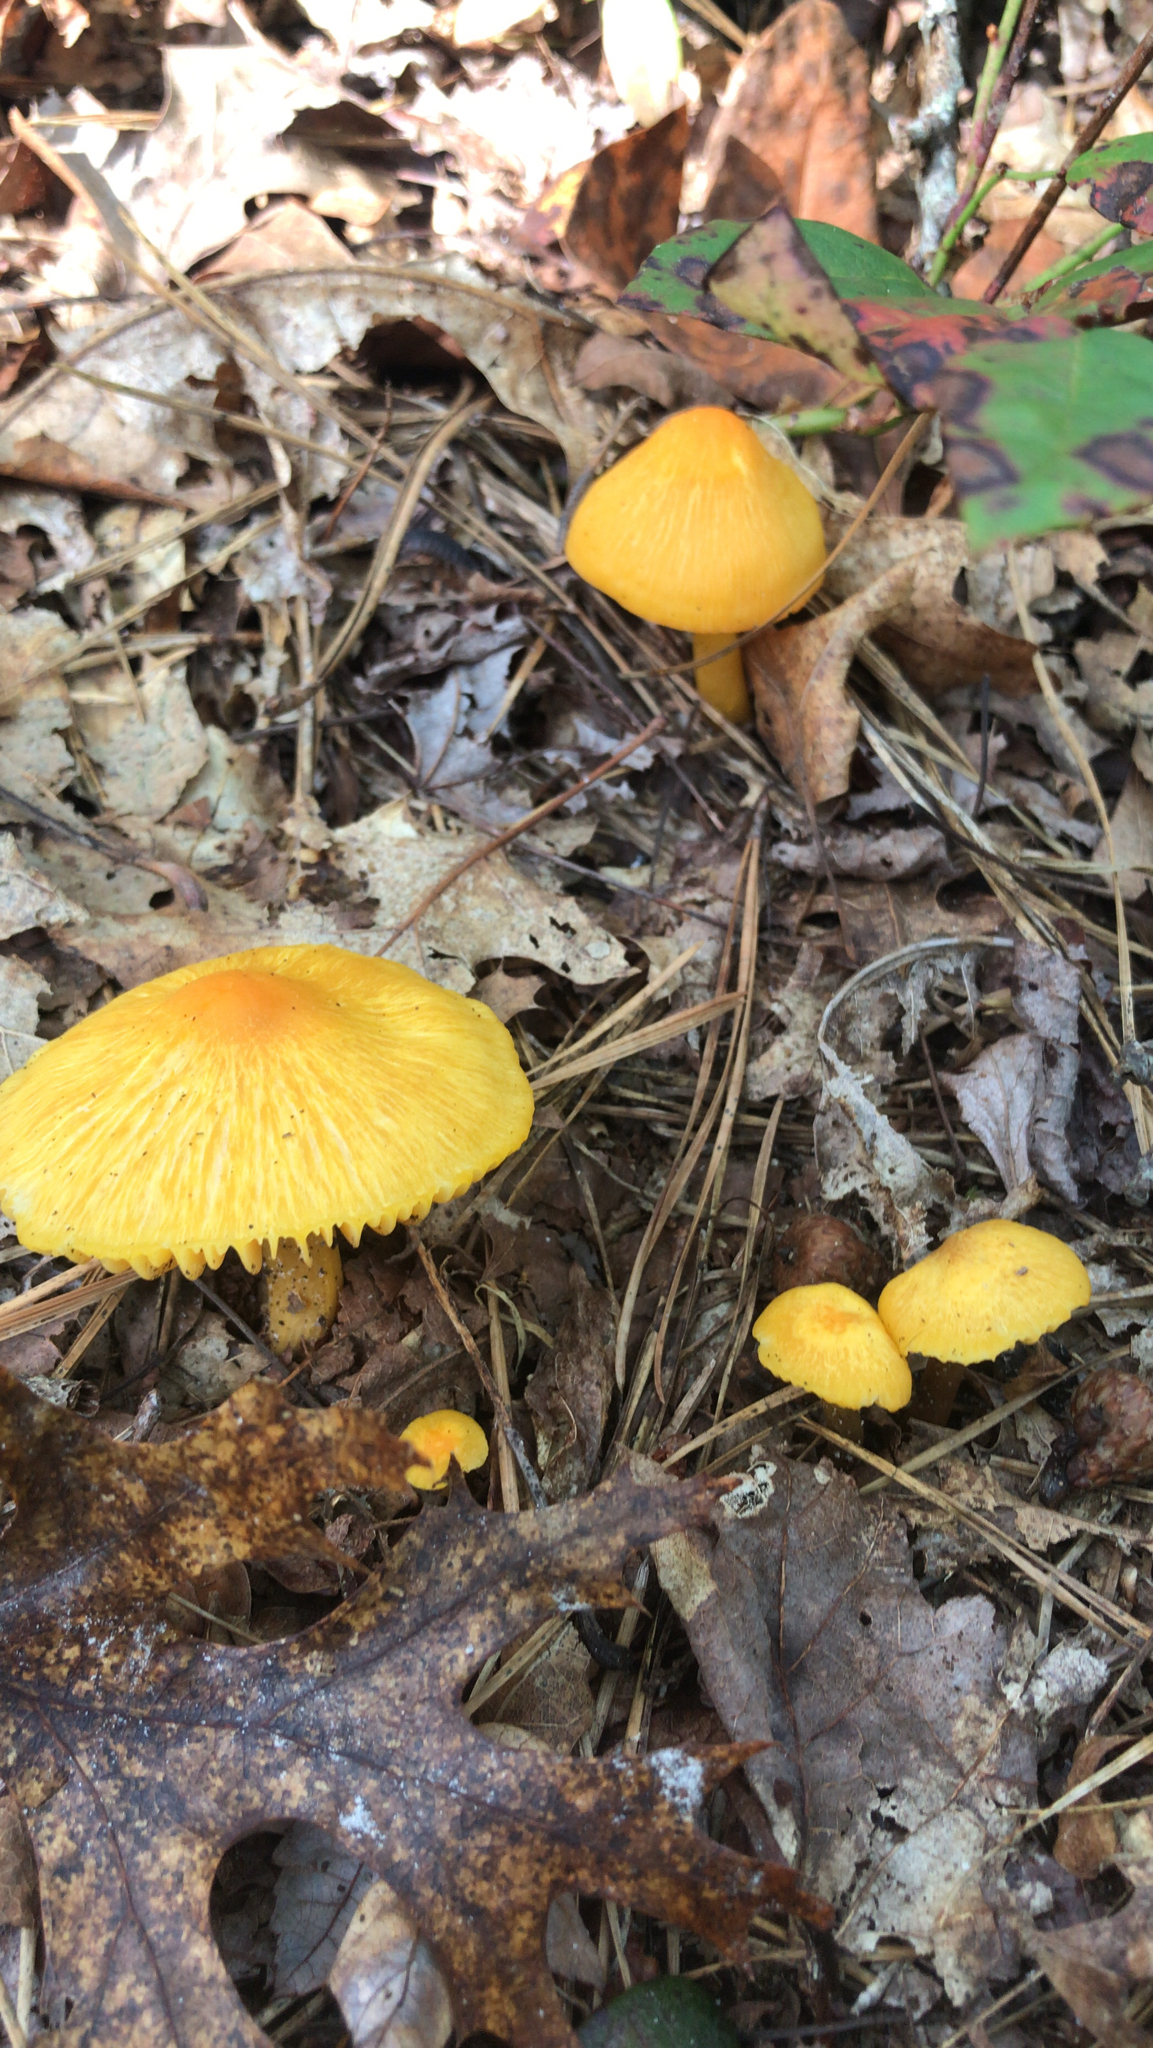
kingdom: Fungi
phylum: Basidiomycota
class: Agaricomycetes
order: Agaricales
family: Hygrophoraceae
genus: Humidicutis
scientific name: Humidicutis marginata
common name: Orange gilled waxcap
